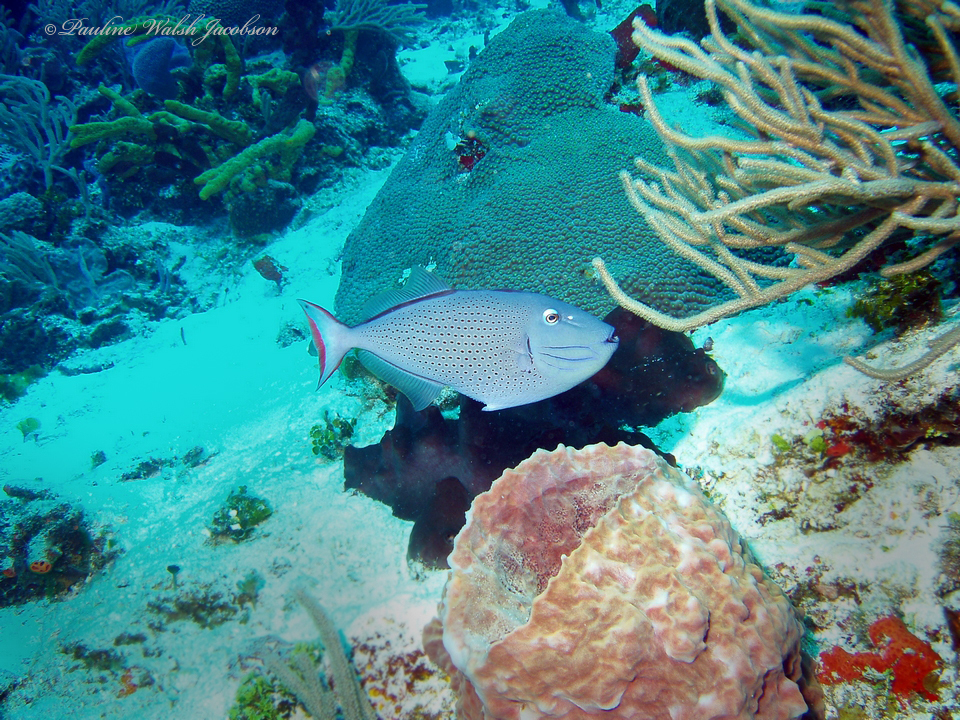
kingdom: Animalia
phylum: Chordata
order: Tetraodontiformes
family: Balistidae
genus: Xanthichthys
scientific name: Xanthichthys ringens
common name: Sargassum triggerfish
